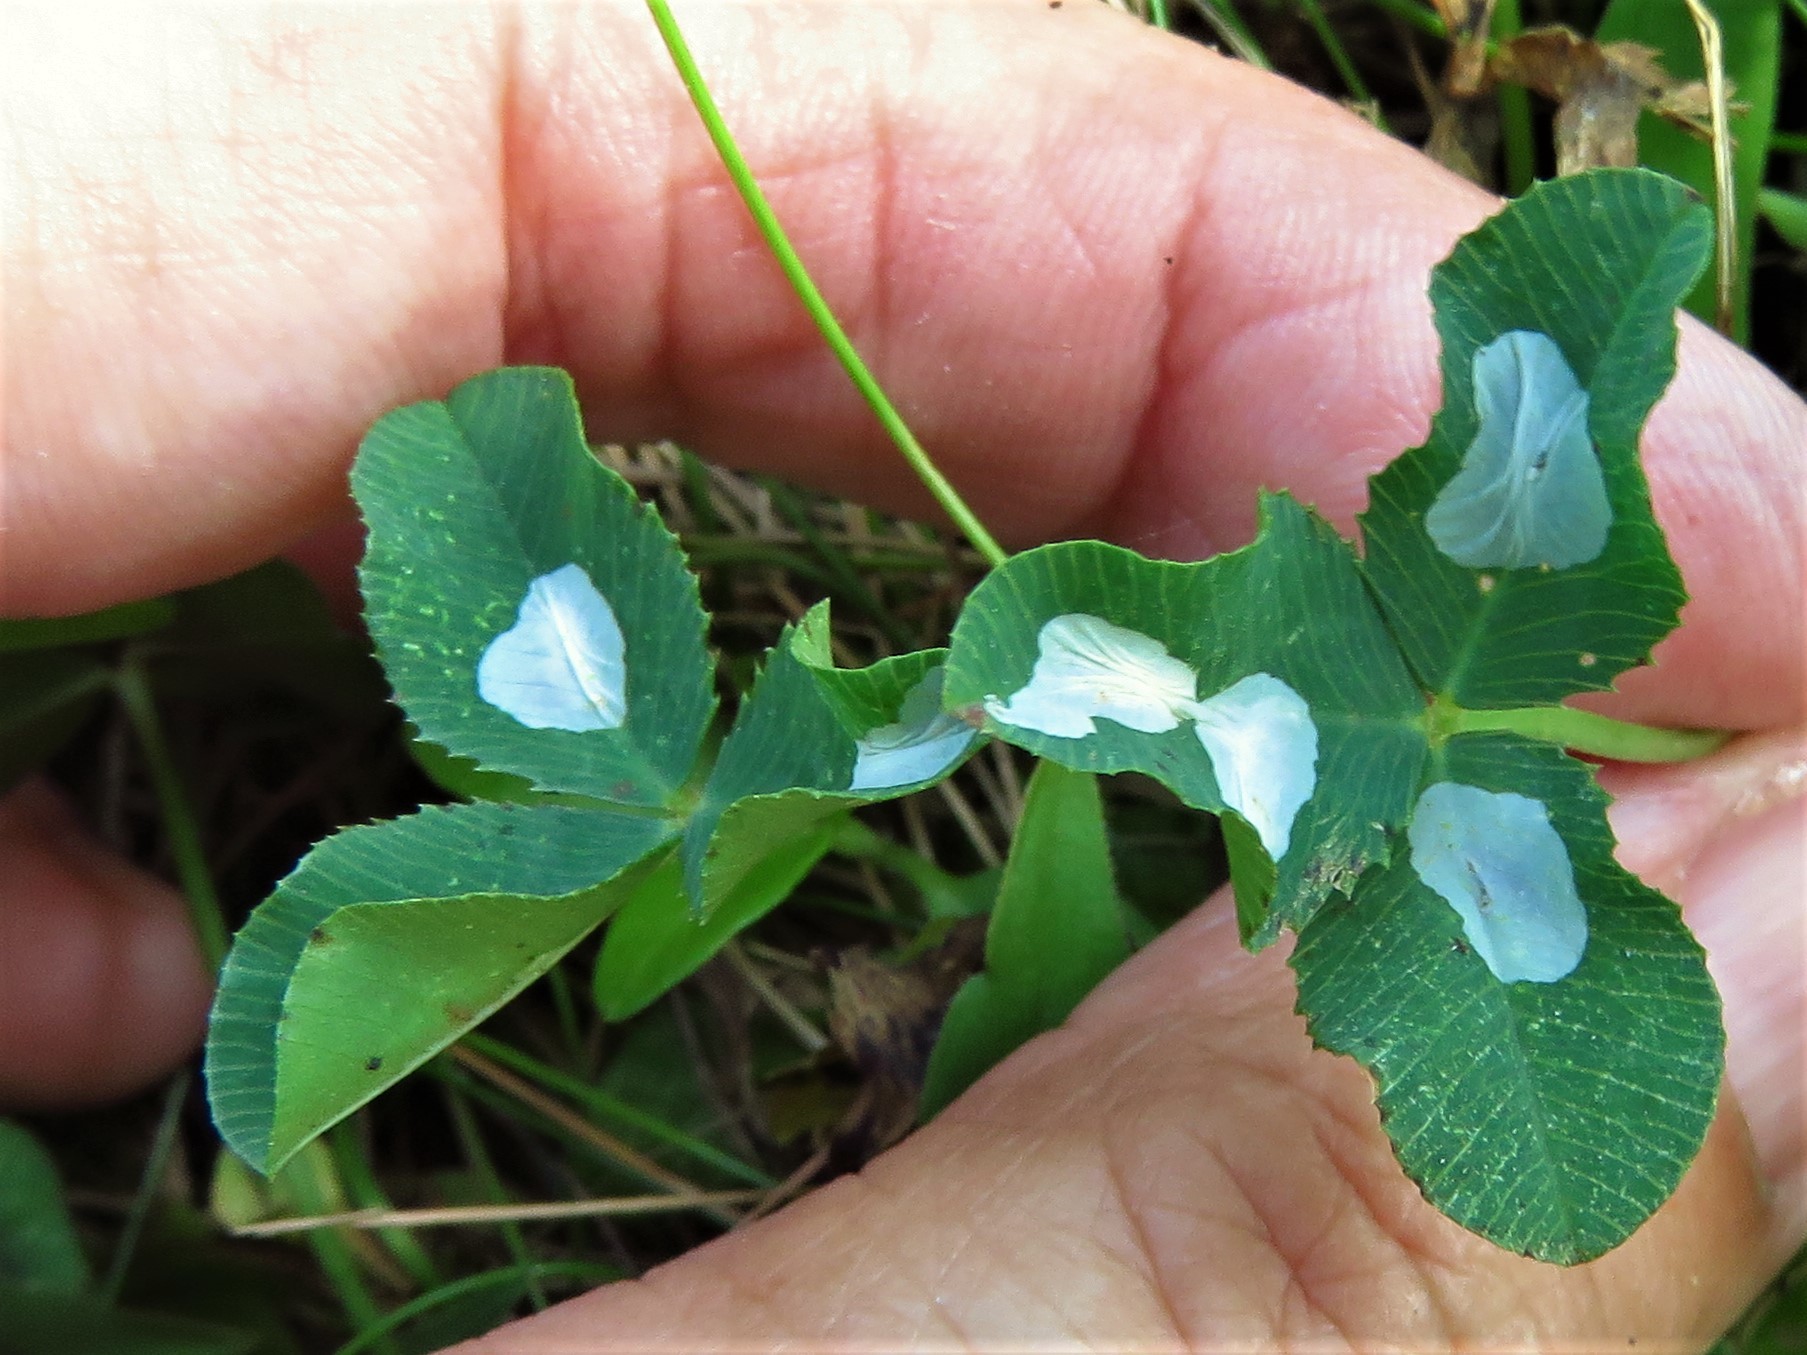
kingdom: Animalia
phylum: Arthropoda
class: Insecta
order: Lepidoptera
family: Gracillariidae
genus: Porphyrosela
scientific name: Porphyrosela minuta
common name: Leaf miner moth
